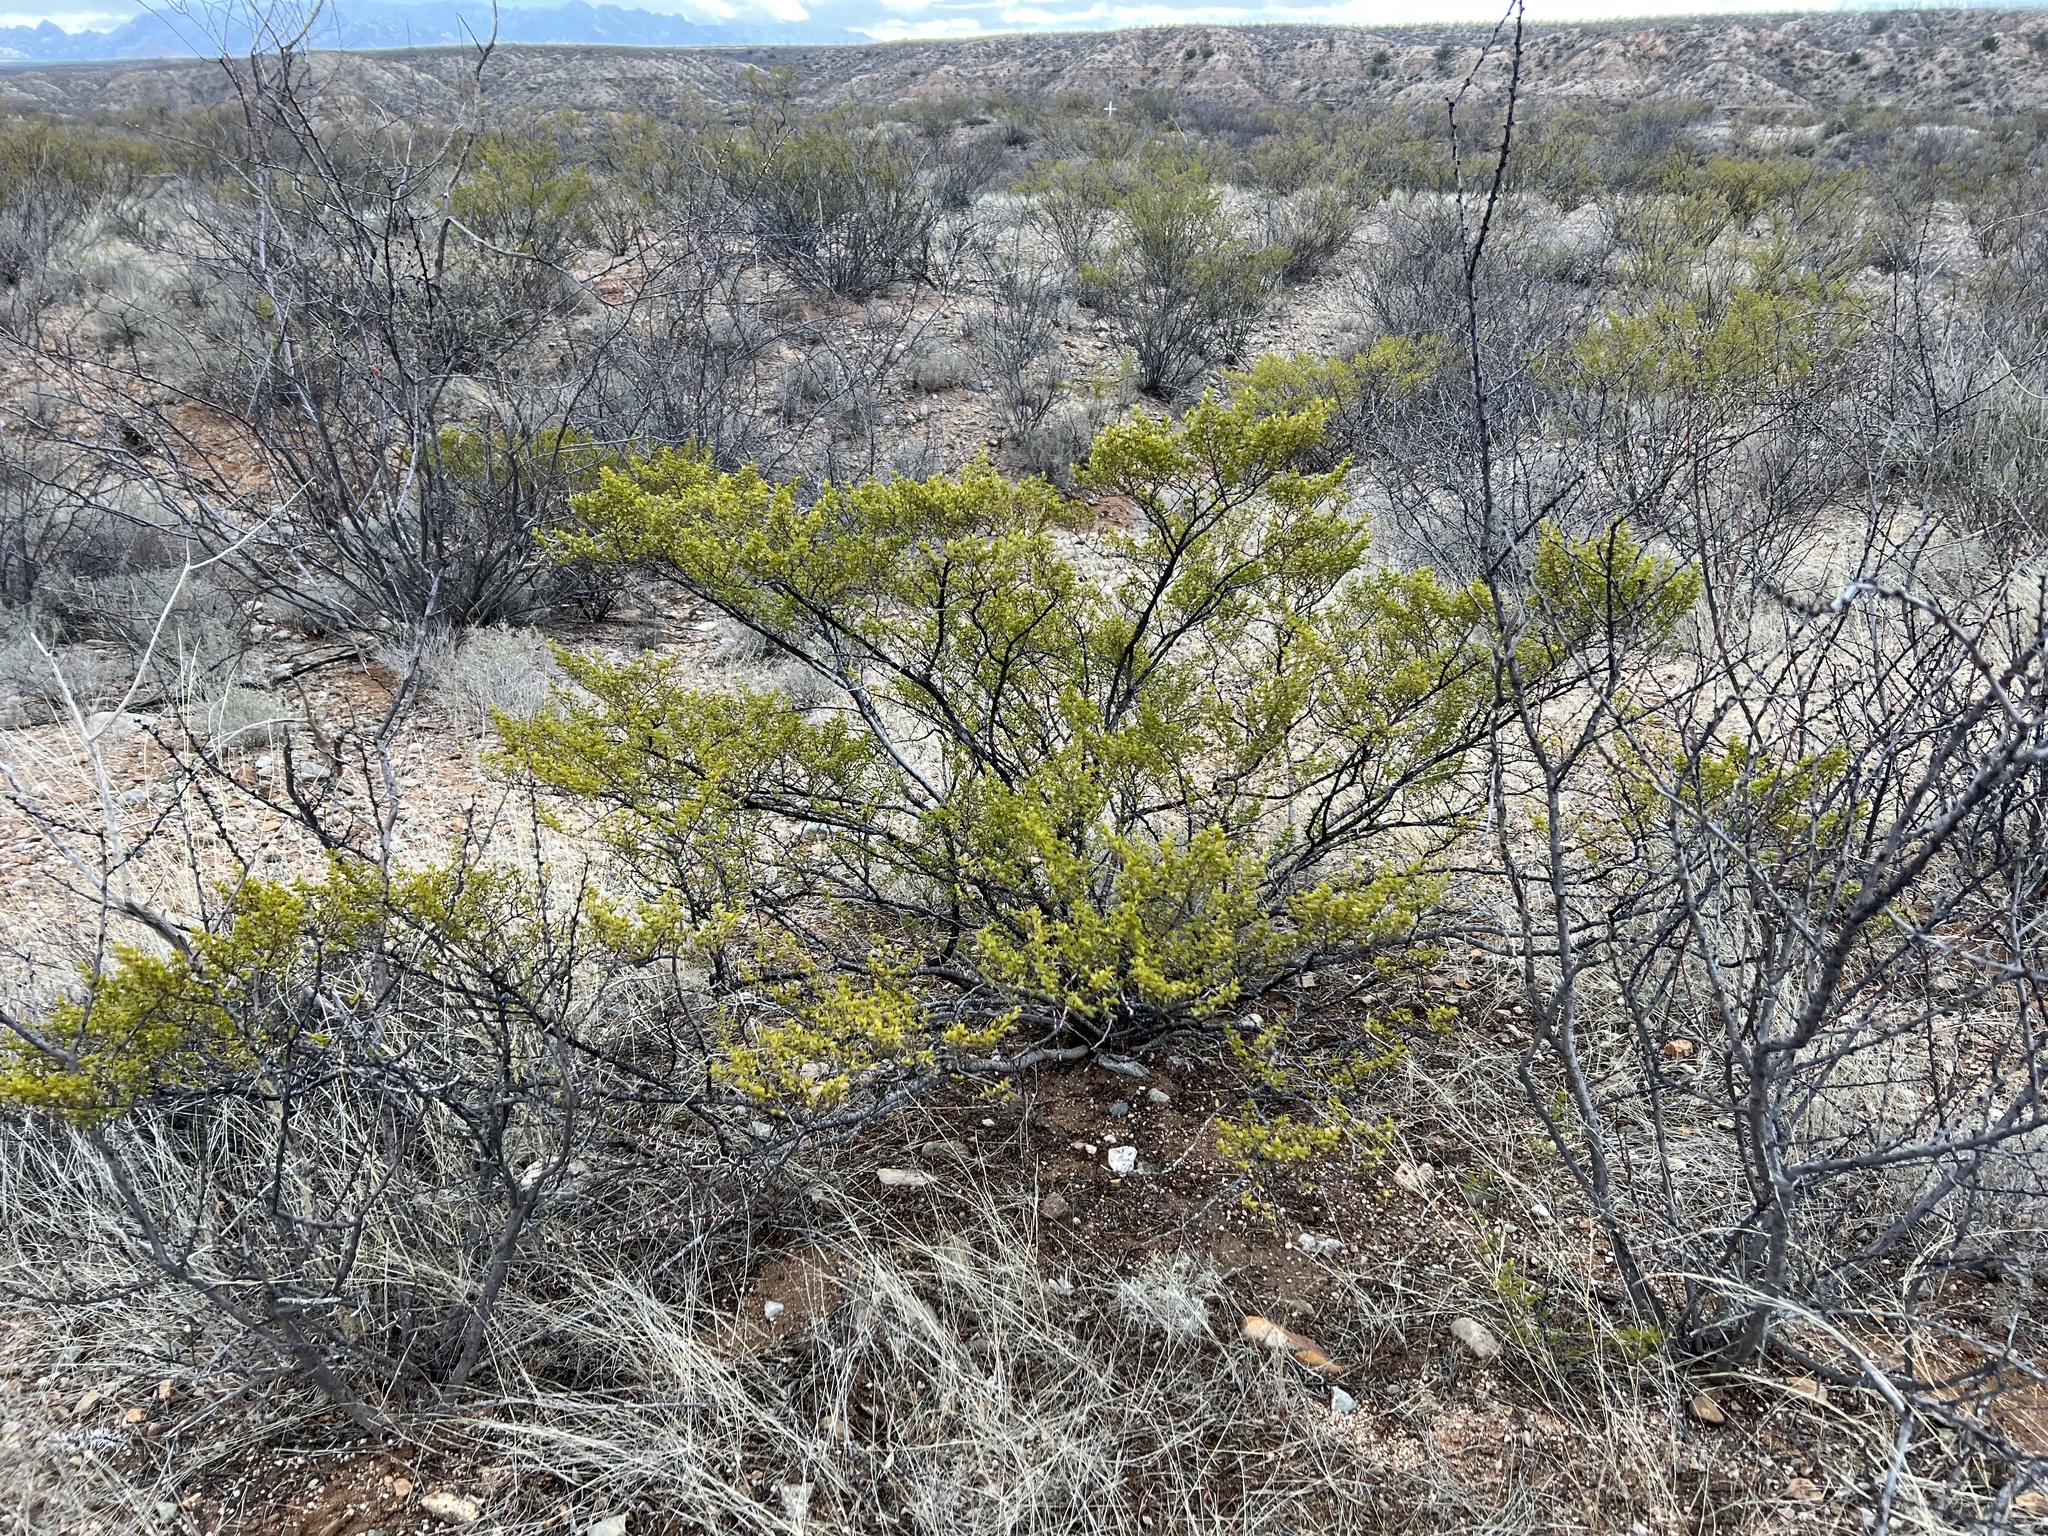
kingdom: Plantae
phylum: Tracheophyta
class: Magnoliopsida
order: Zygophyllales
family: Zygophyllaceae
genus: Larrea
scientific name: Larrea tridentata
